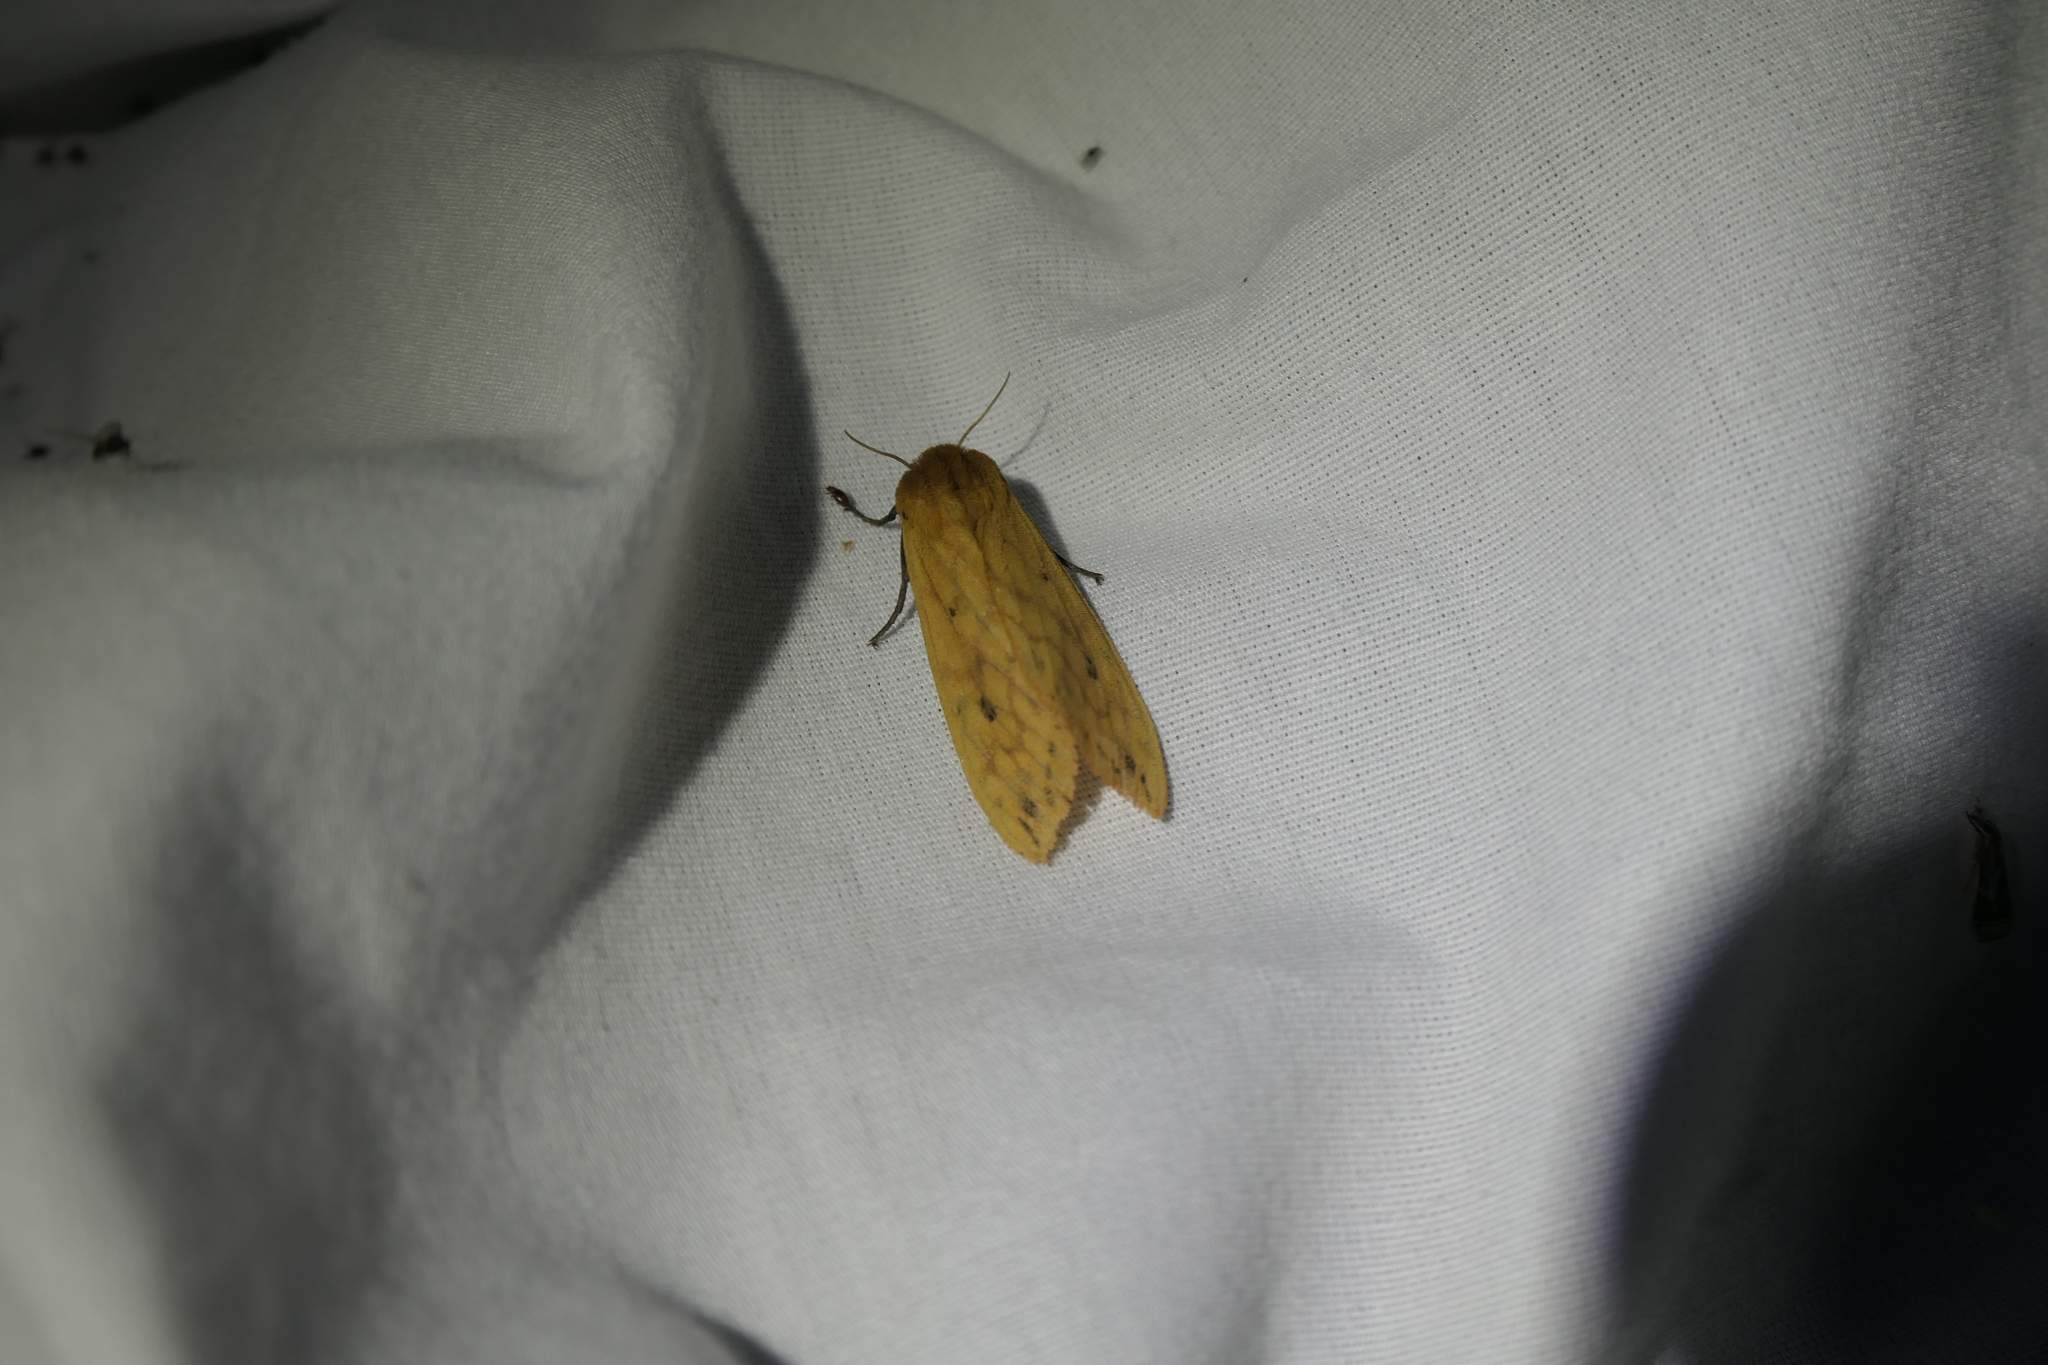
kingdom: Animalia
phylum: Arthropoda
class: Insecta
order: Lepidoptera
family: Erebidae
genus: Pyrrharctia
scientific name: Pyrrharctia isabella
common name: Isabella tiger moth
